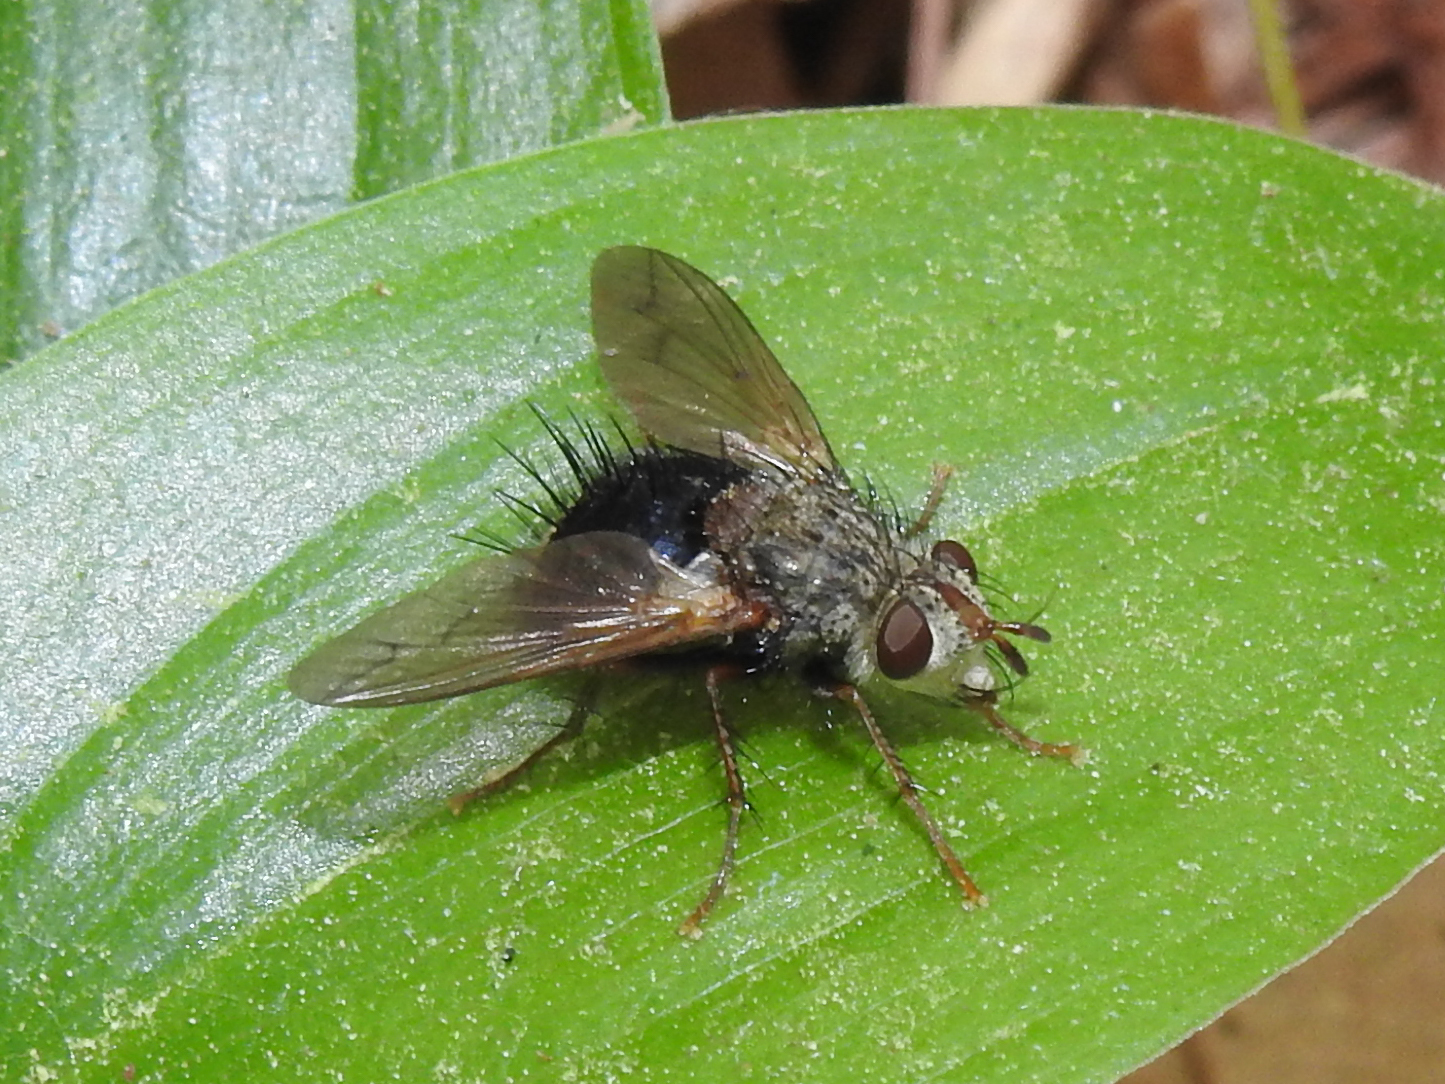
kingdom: Animalia
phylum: Arthropoda
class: Insecta
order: Diptera
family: Tachinidae
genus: Epalpus
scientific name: Epalpus signifer
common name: Early tachinid fly
